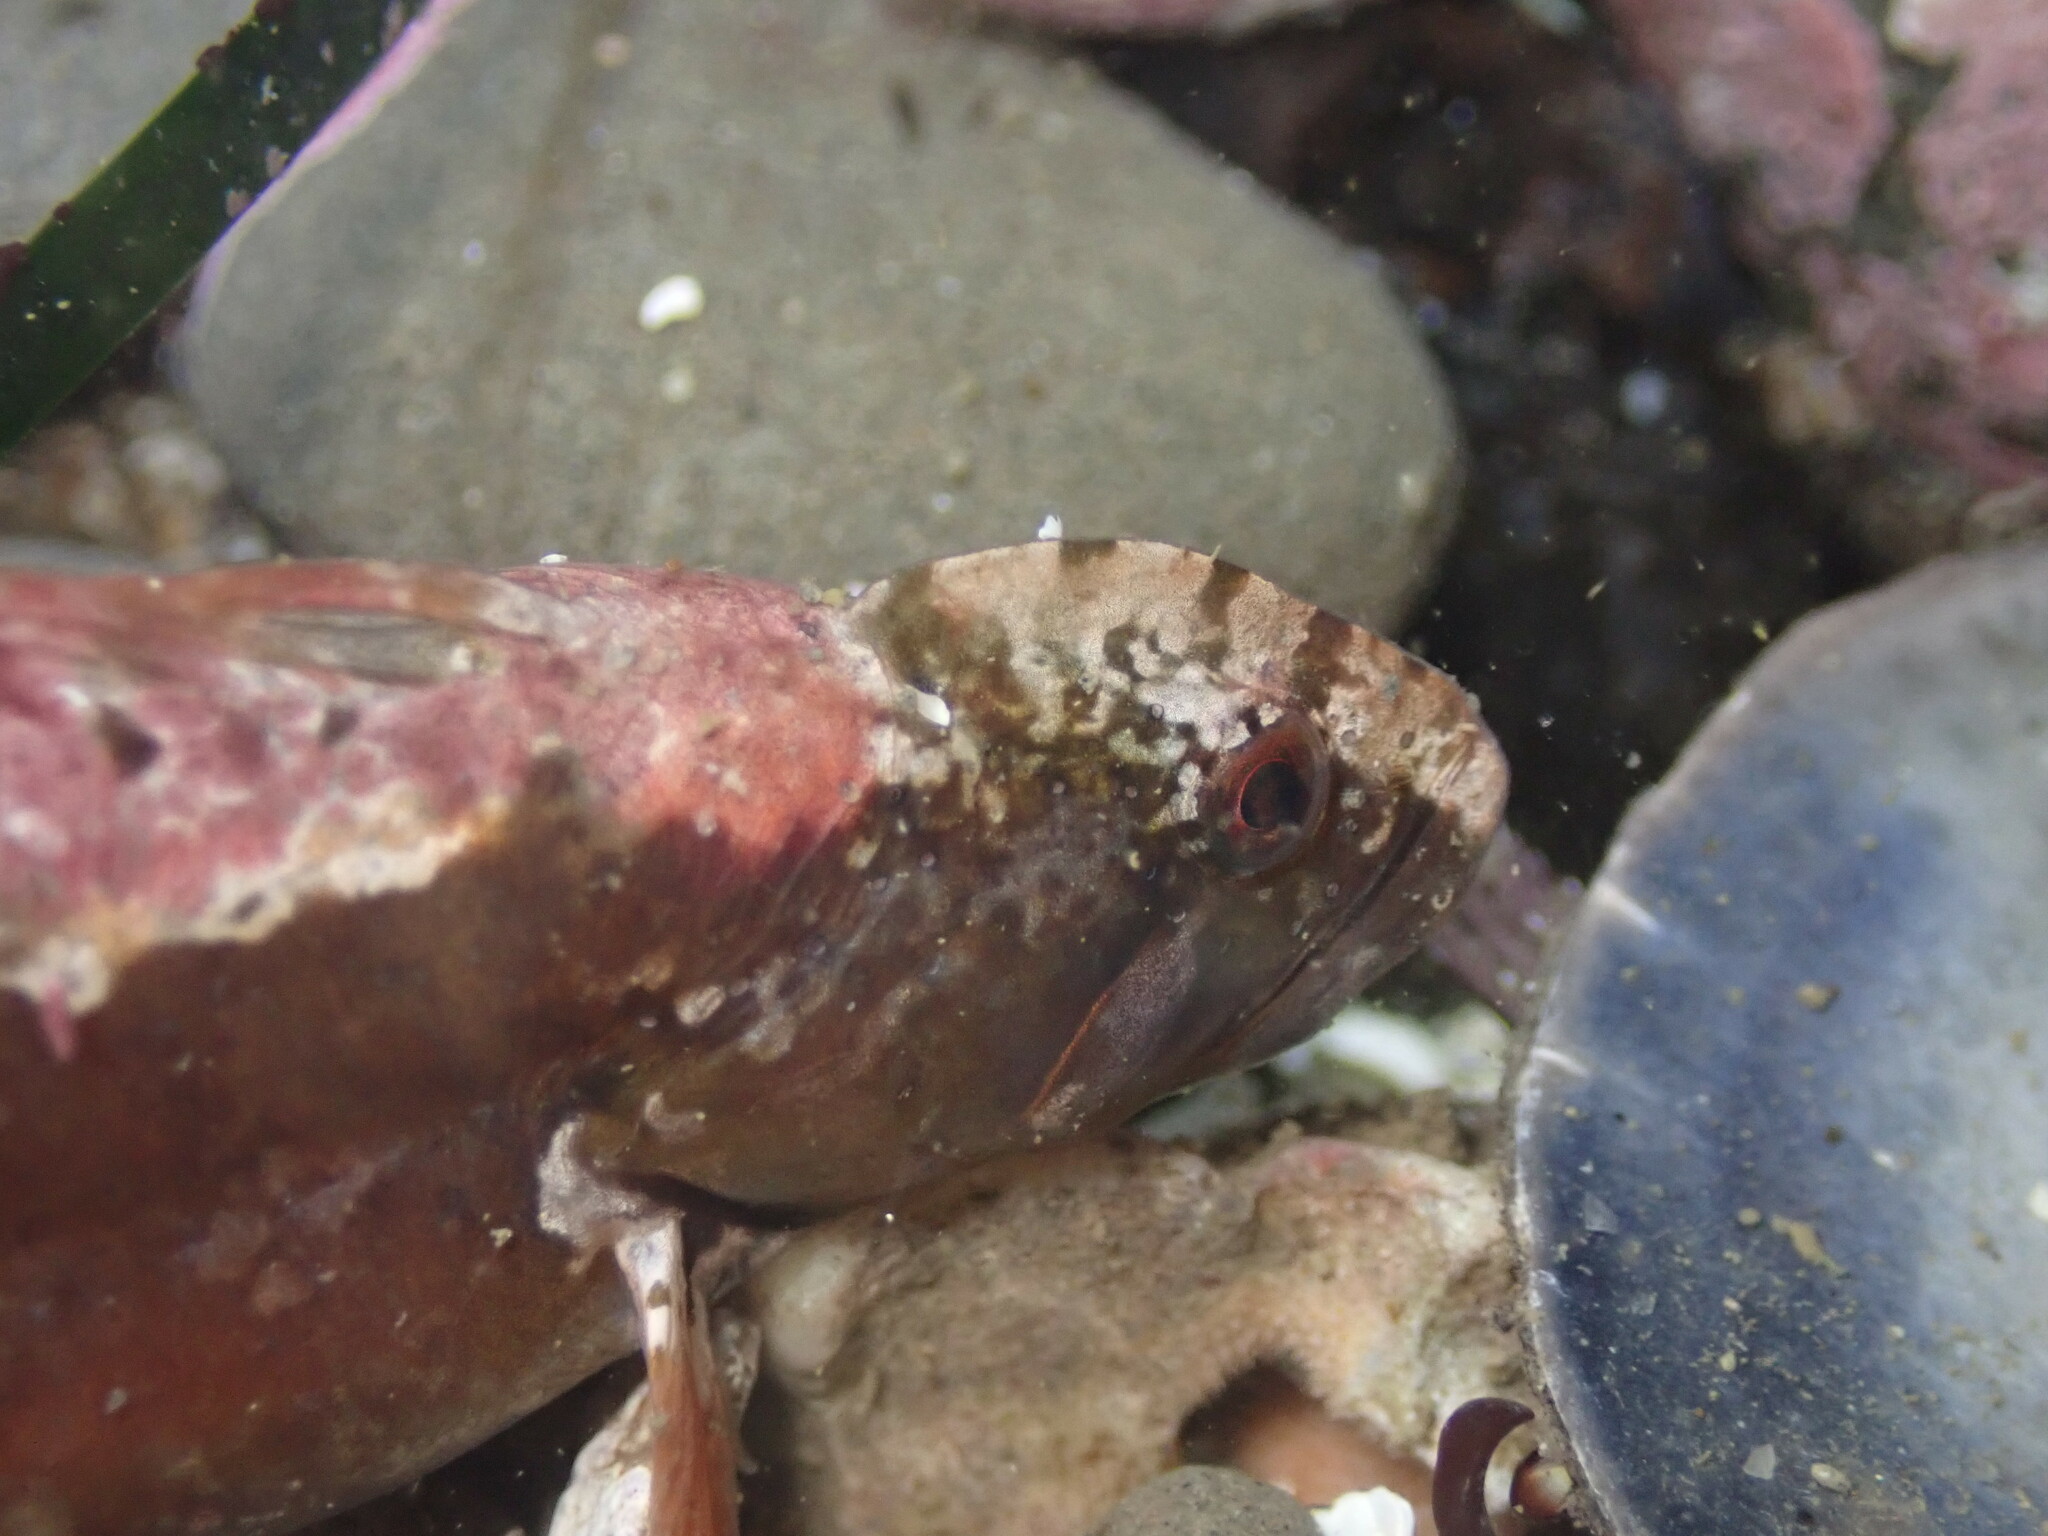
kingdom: Animalia
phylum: Chordata
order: Perciformes
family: Stichaeidae
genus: Anoplarchus
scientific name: Anoplarchus purpurescens
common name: High cockscomb
